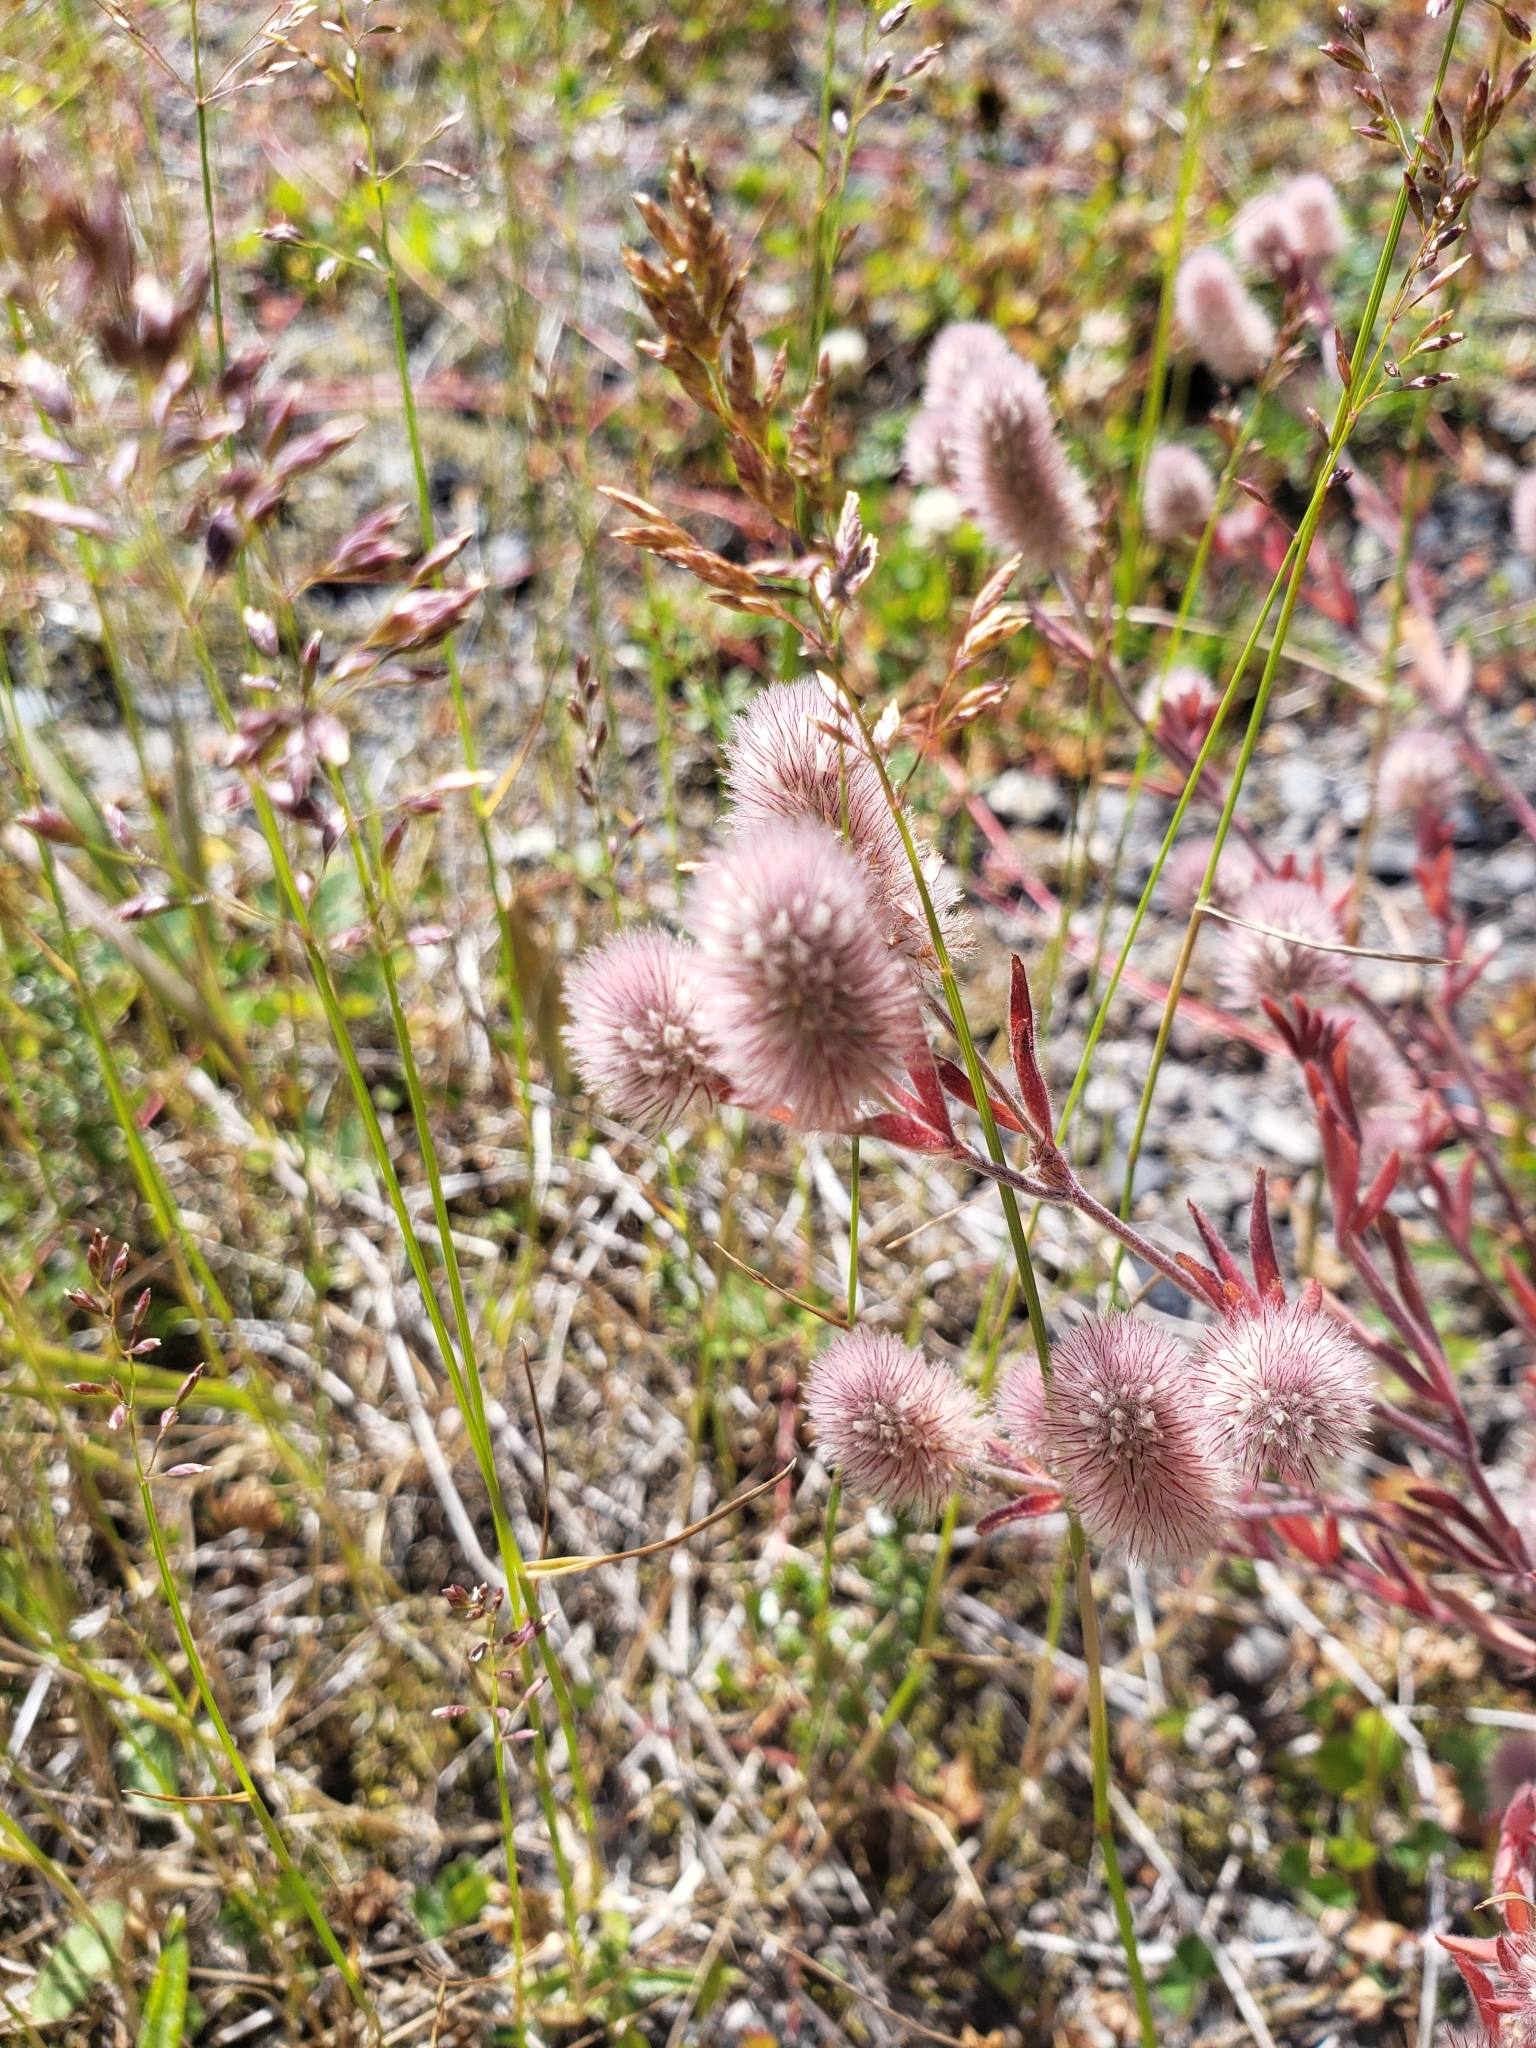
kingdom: Plantae
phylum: Tracheophyta
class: Magnoliopsida
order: Fabales
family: Fabaceae
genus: Trifolium
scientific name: Trifolium arvense
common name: Hare's-foot clover
